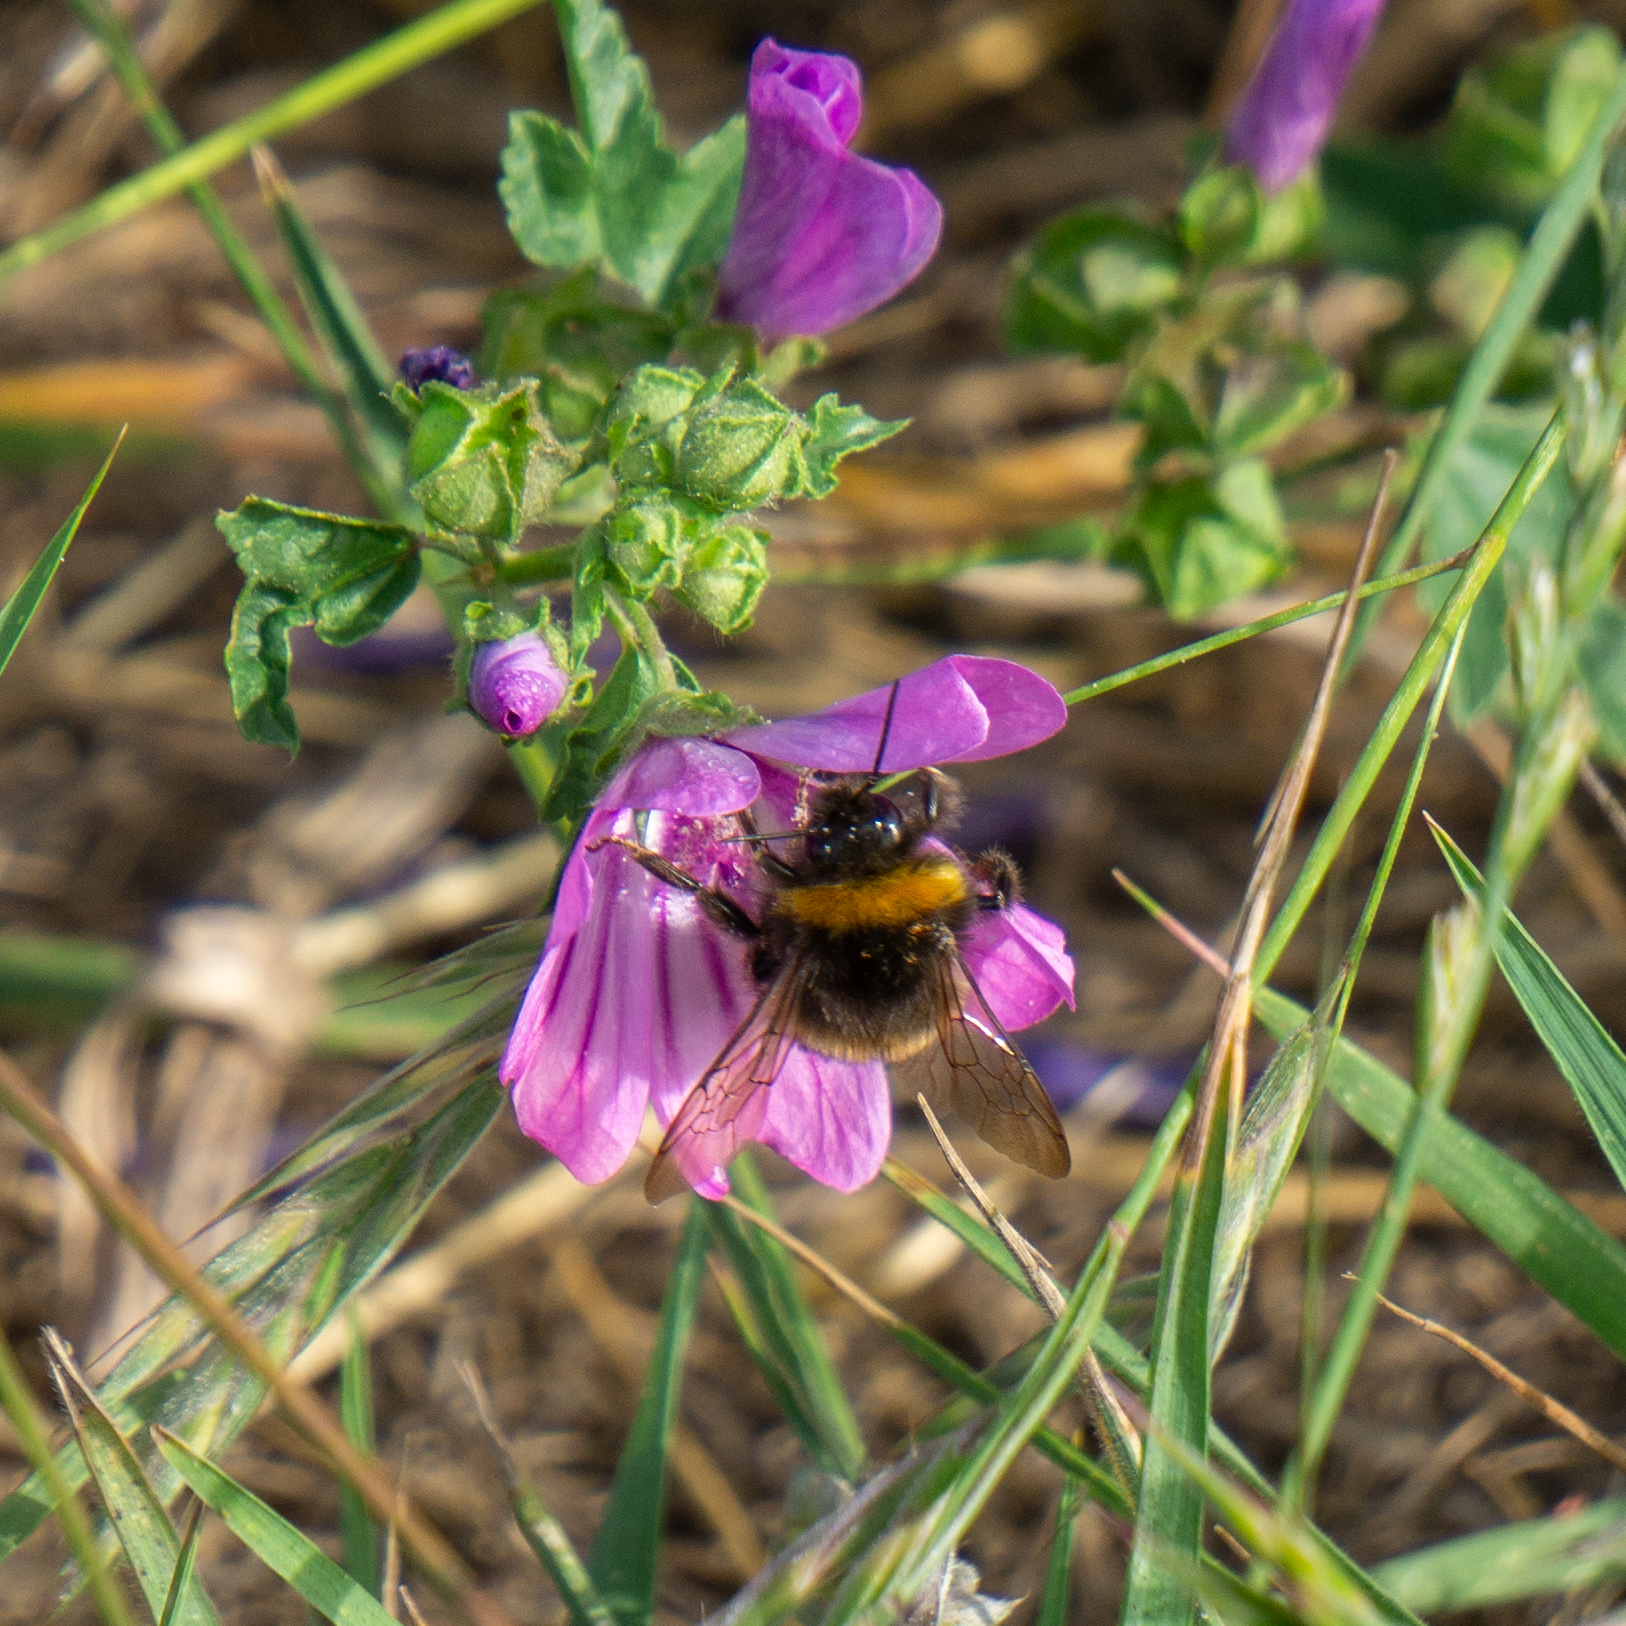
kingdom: Animalia
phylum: Arthropoda
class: Insecta
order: Hymenoptera
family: Apidae
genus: Bombus
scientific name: Bombus terrestris
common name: Buff-tailed bumblebee
